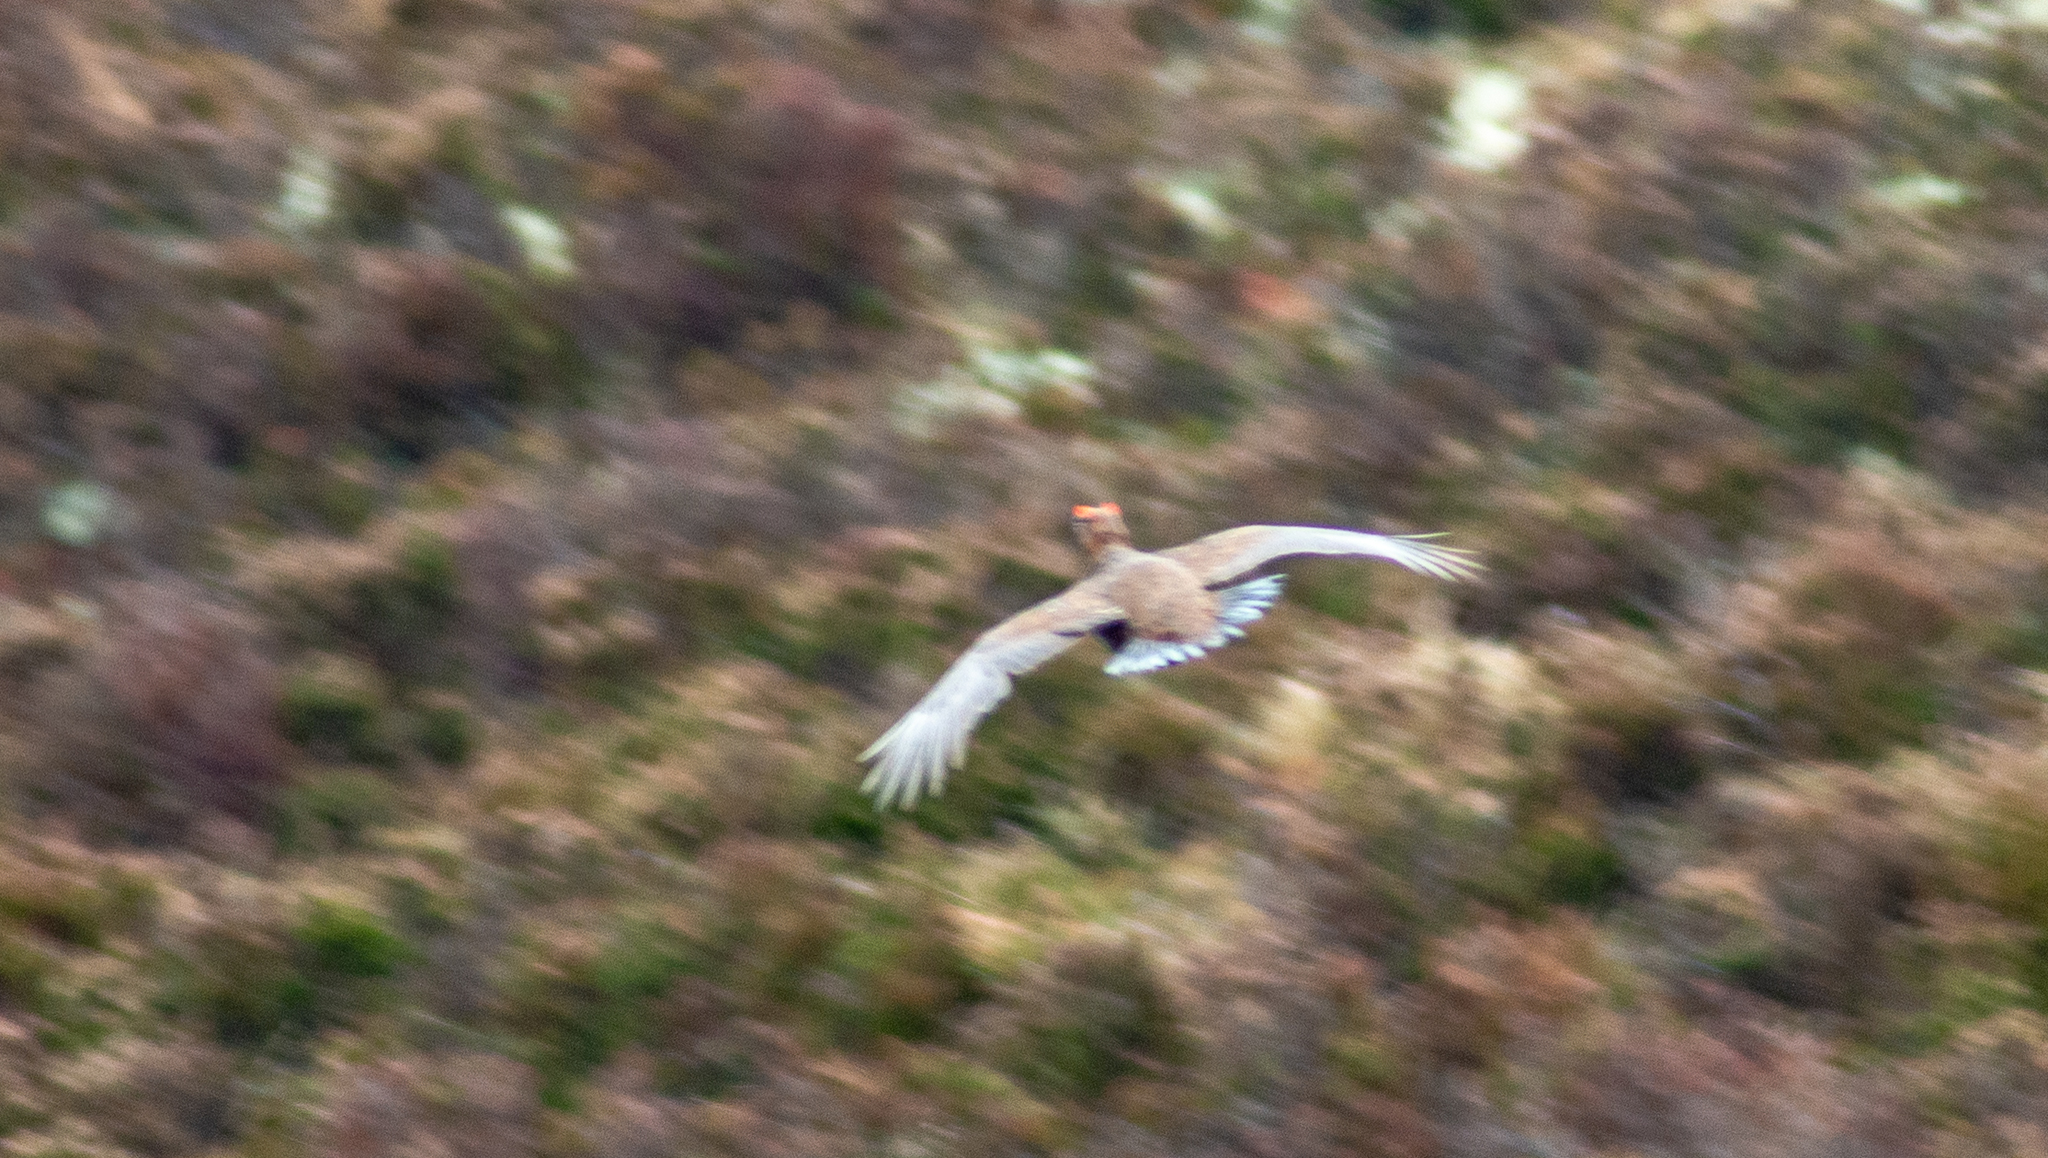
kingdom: Animalia
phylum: Chordata
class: Aves
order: Galliformes
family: Phasianidae
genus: Lagopus
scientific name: Lagopus lagopus
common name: Willow ptarmigan
